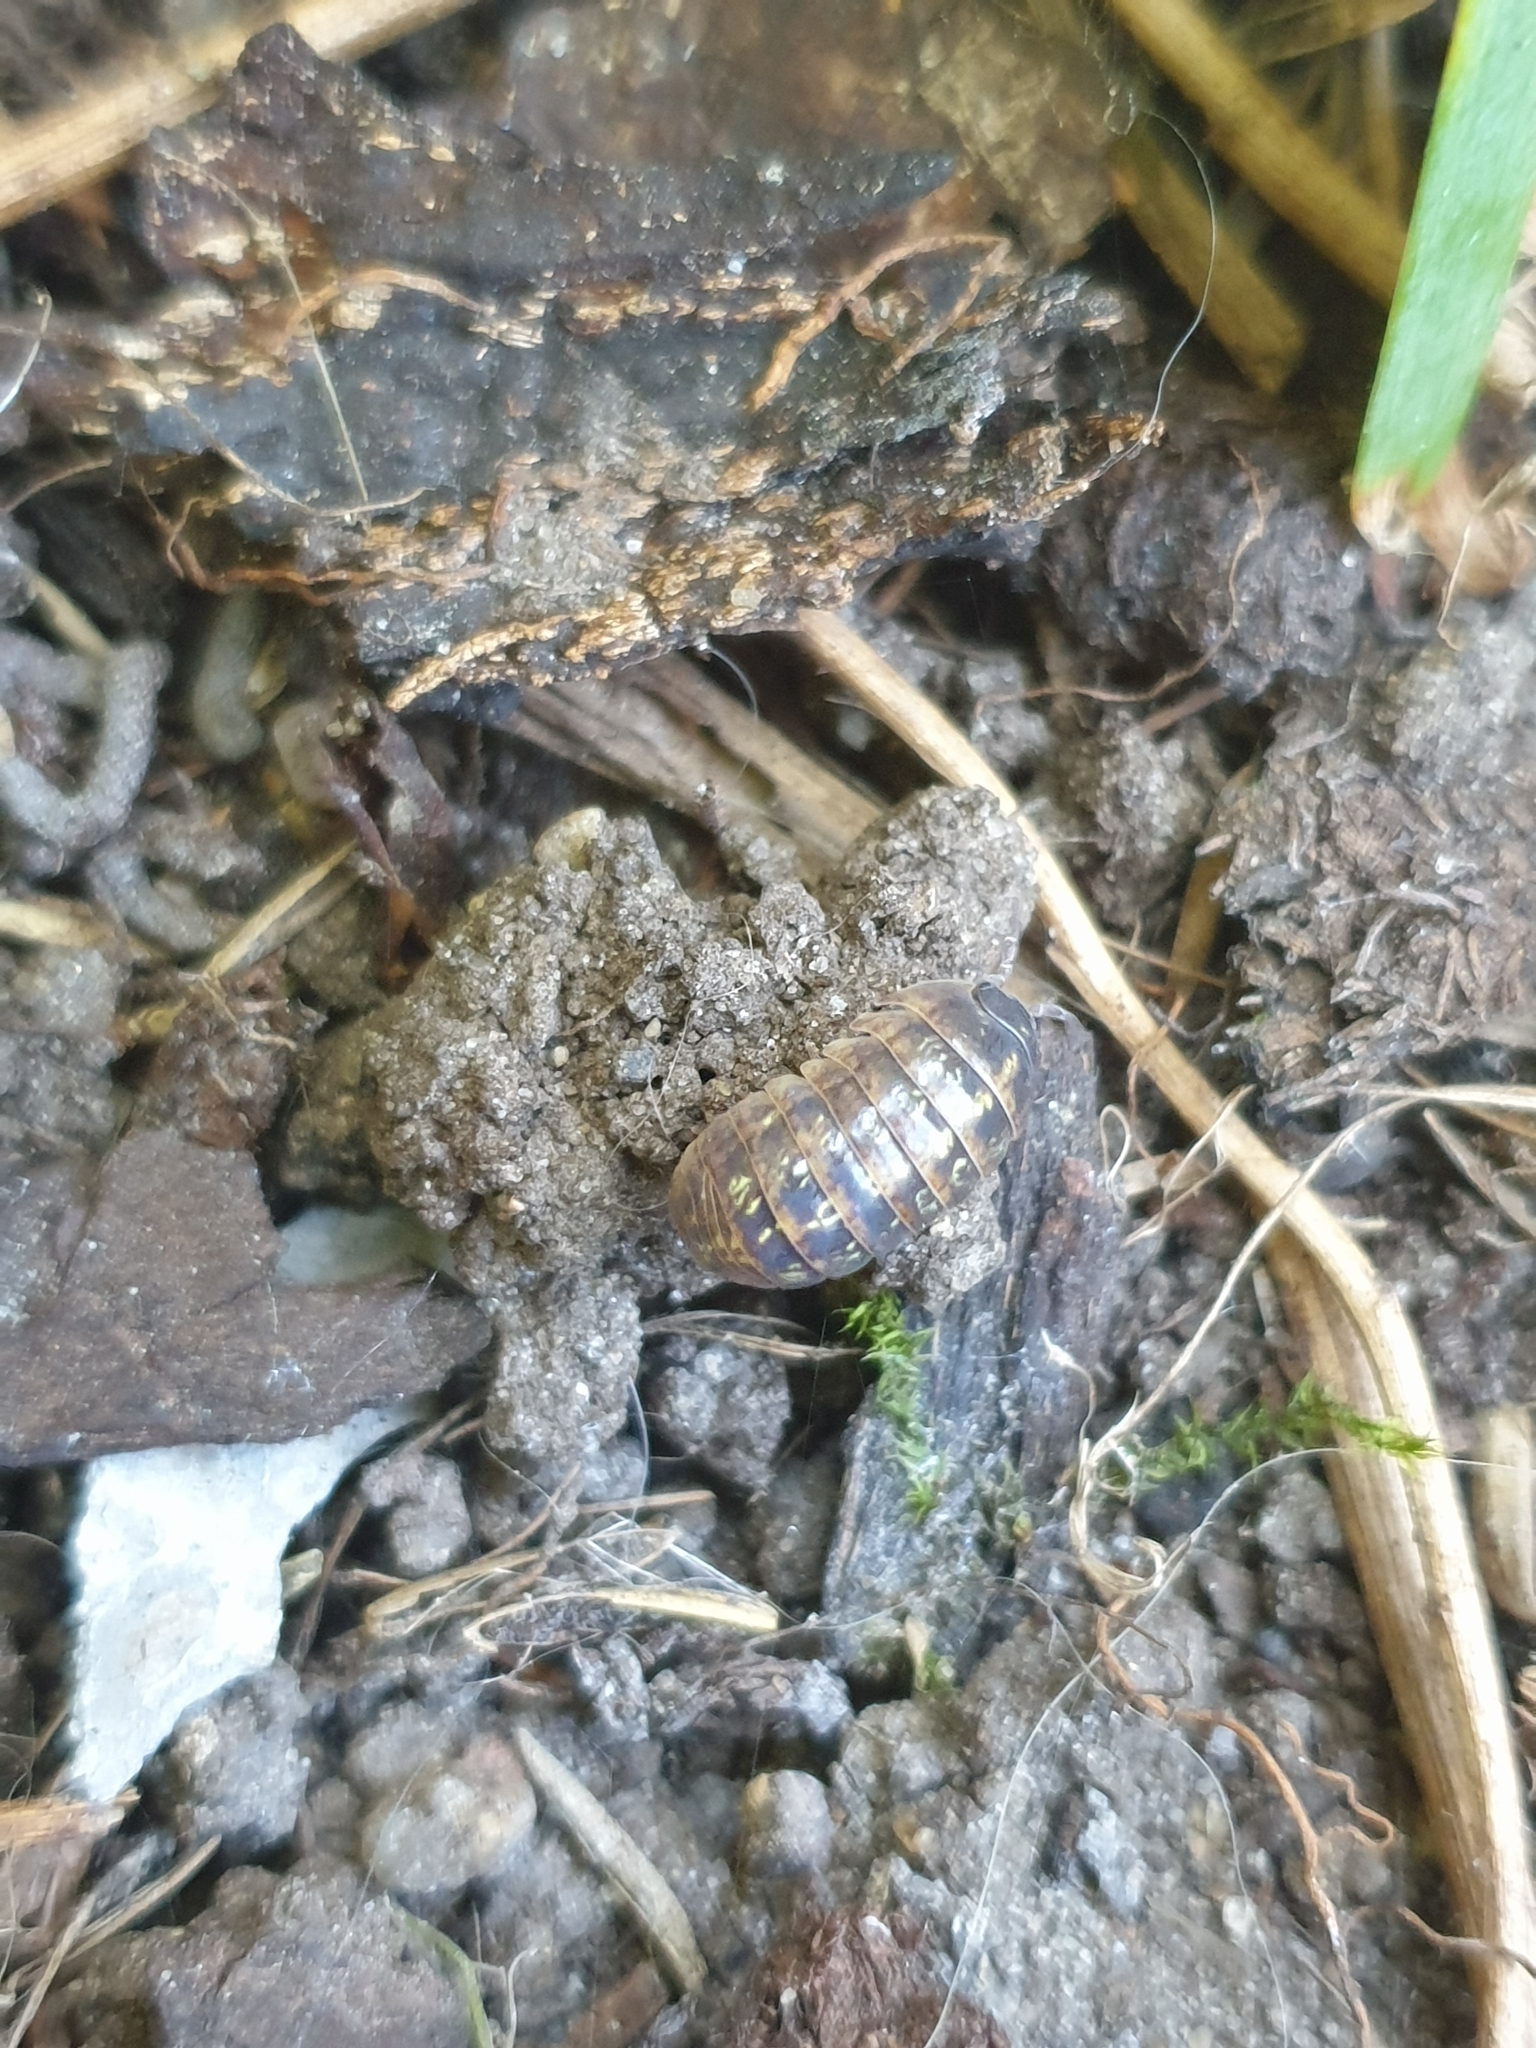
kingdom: Animalia
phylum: Arthropoda
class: Malacostraca
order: Isopoda
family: Armadillidiidae
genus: Armadillidium
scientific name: Armadillidium vulgare
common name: Common pill woodlouse
